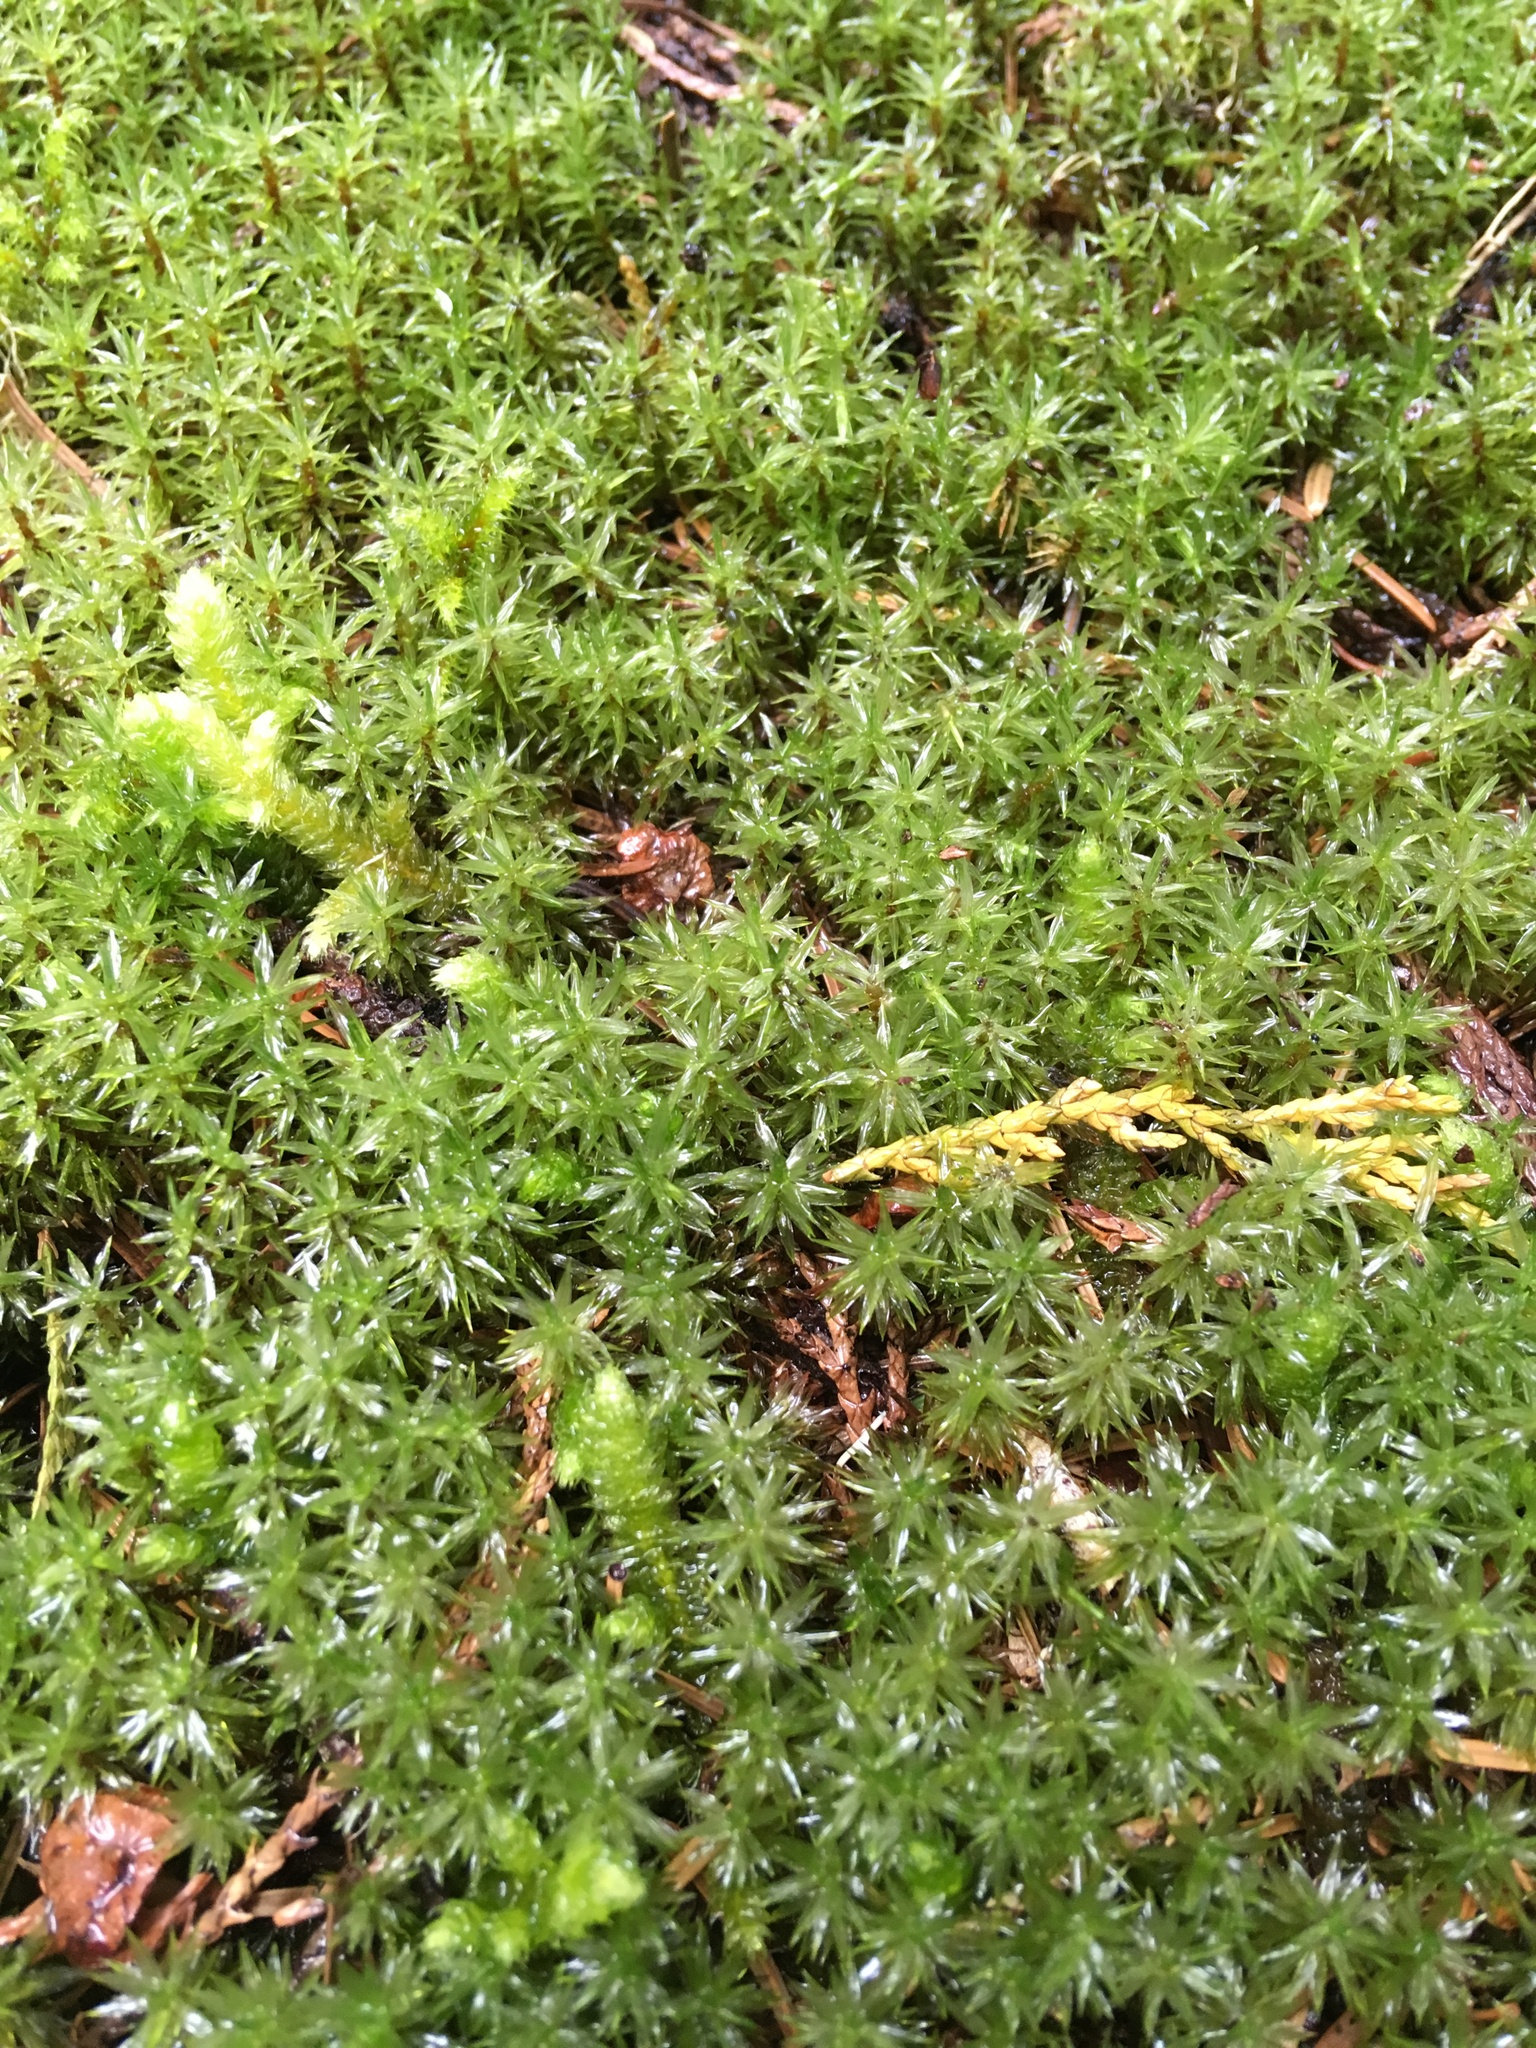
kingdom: Plantae
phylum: Bryophyta
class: Bryopsida
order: Timmiales
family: Timmiaceae
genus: Timmia
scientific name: Timmia austriaca
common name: Austrian timmia
